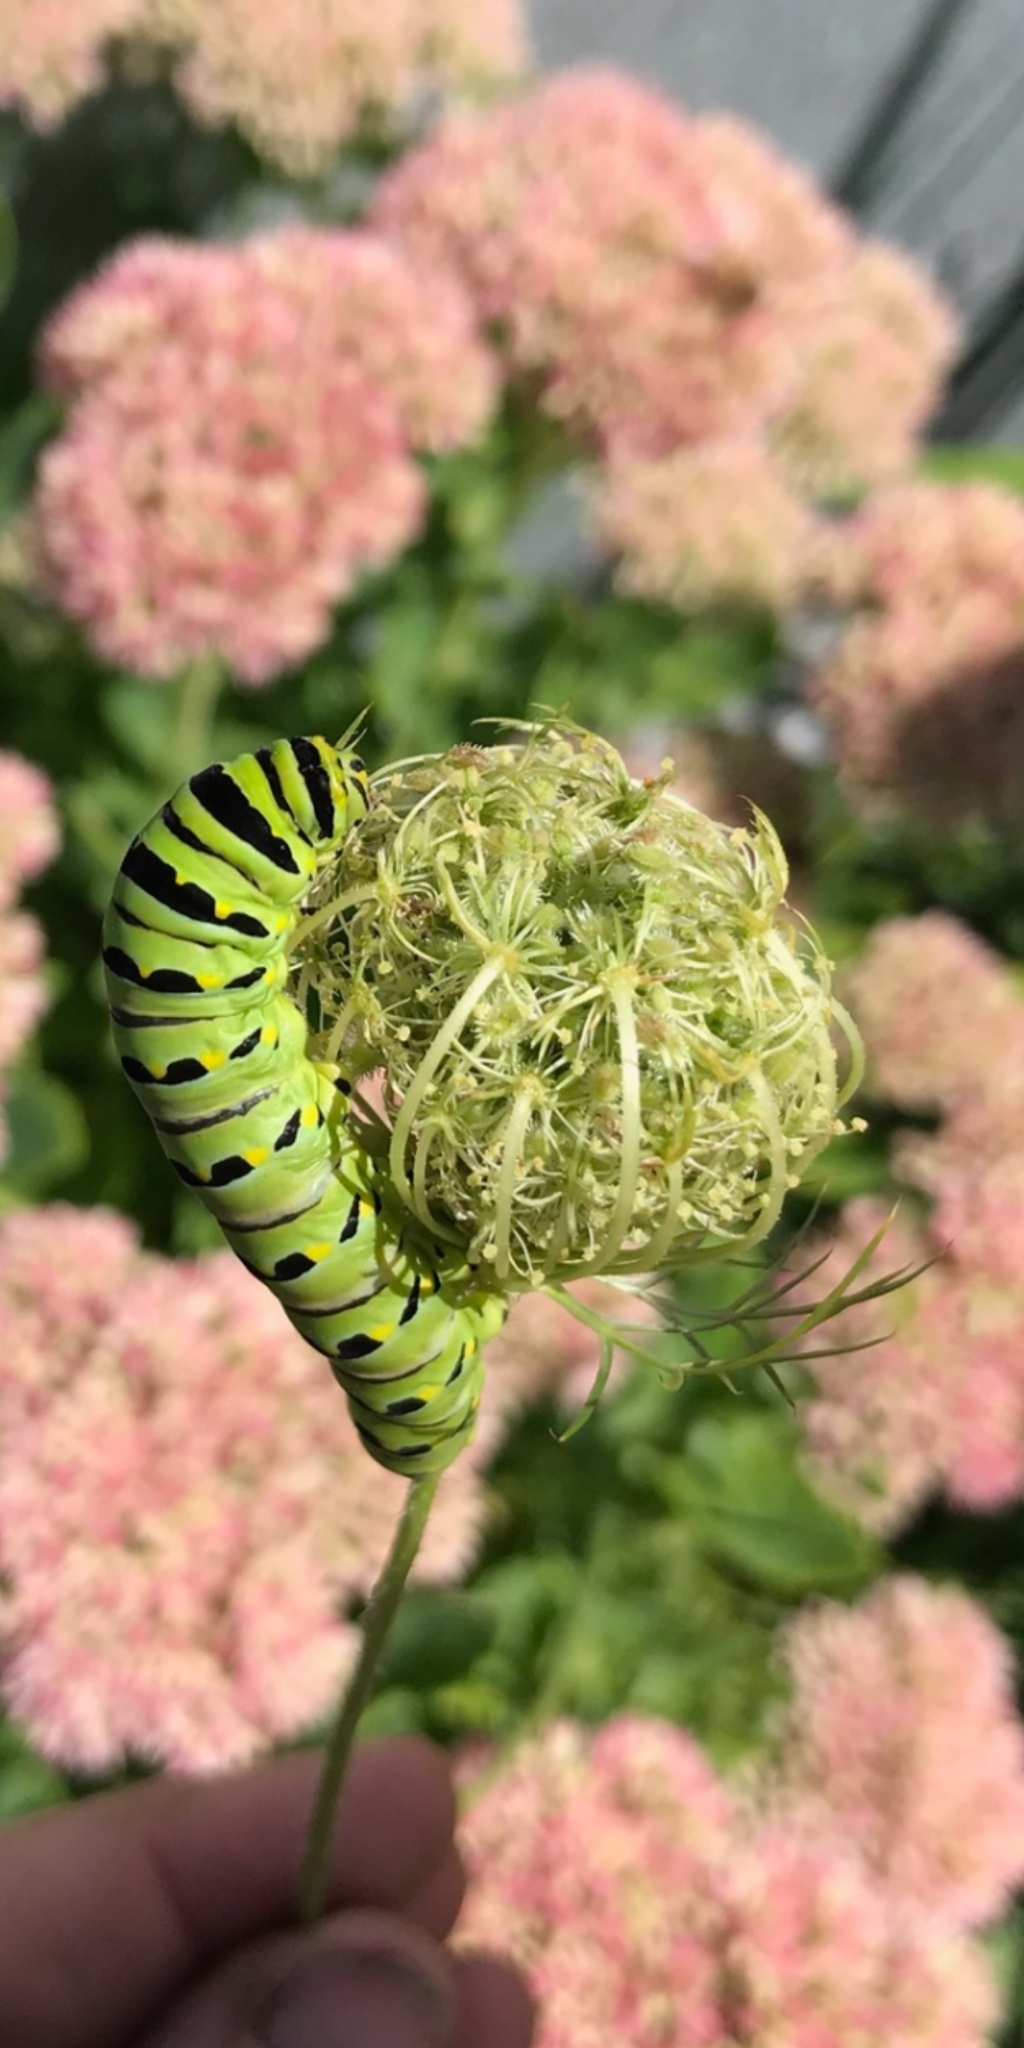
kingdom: Animalia
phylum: Arthropoda
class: Insecta
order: Lepidoptera
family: Papilionidae
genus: Papilio
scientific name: Papilio polyxenes
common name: Black swallowtail
